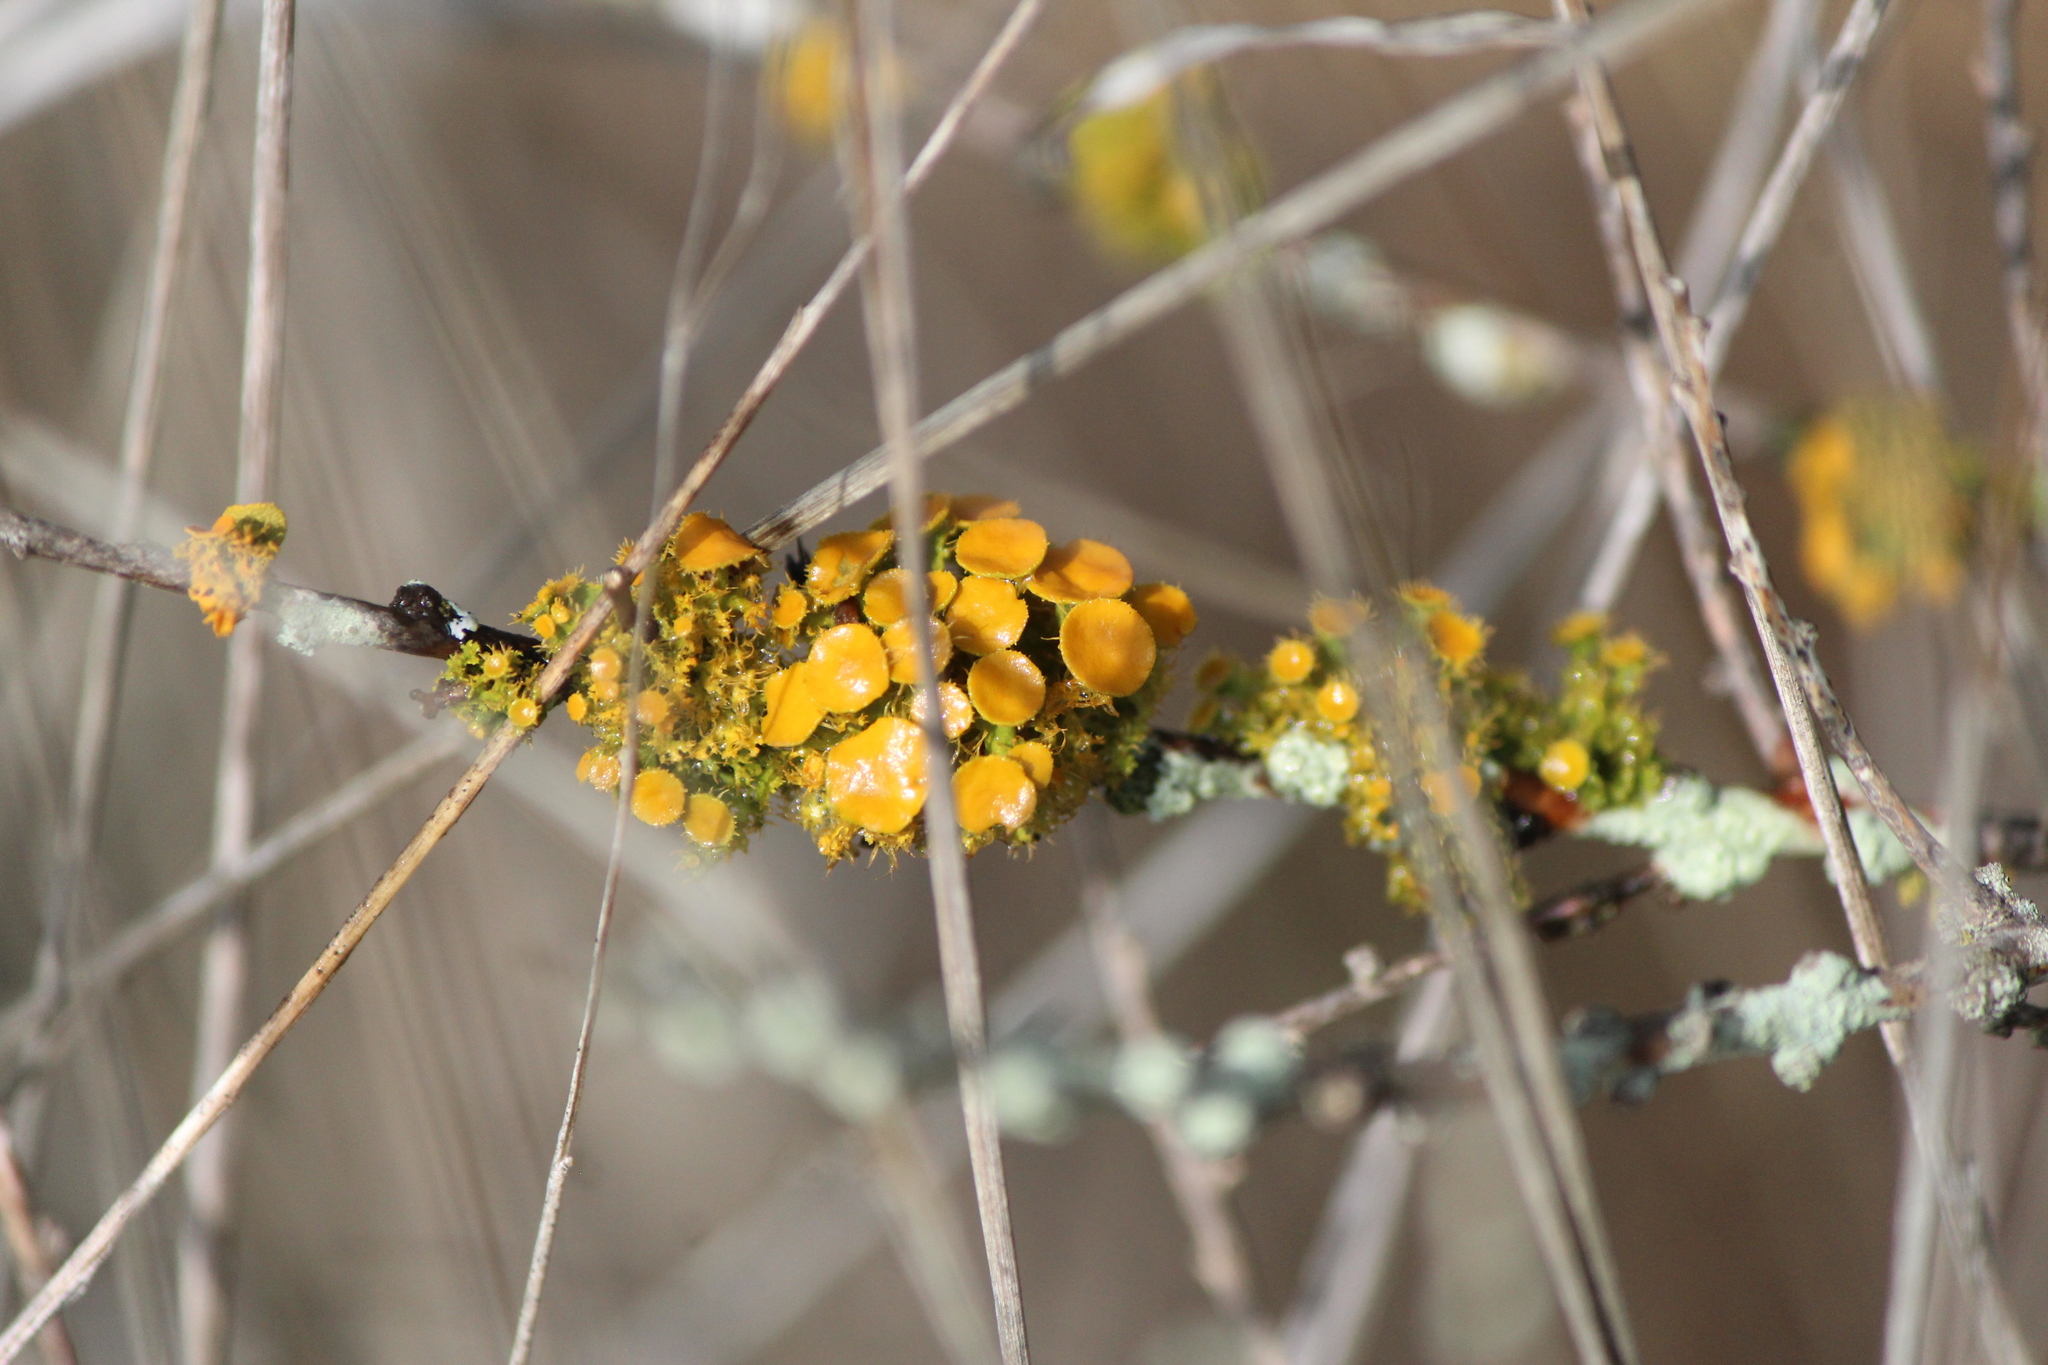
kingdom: Fungi
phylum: Ascomycota
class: Lecanoromycetes
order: Teloschistales
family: Teloschistaceae
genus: Niorma
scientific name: Niorma chrysophthalma
